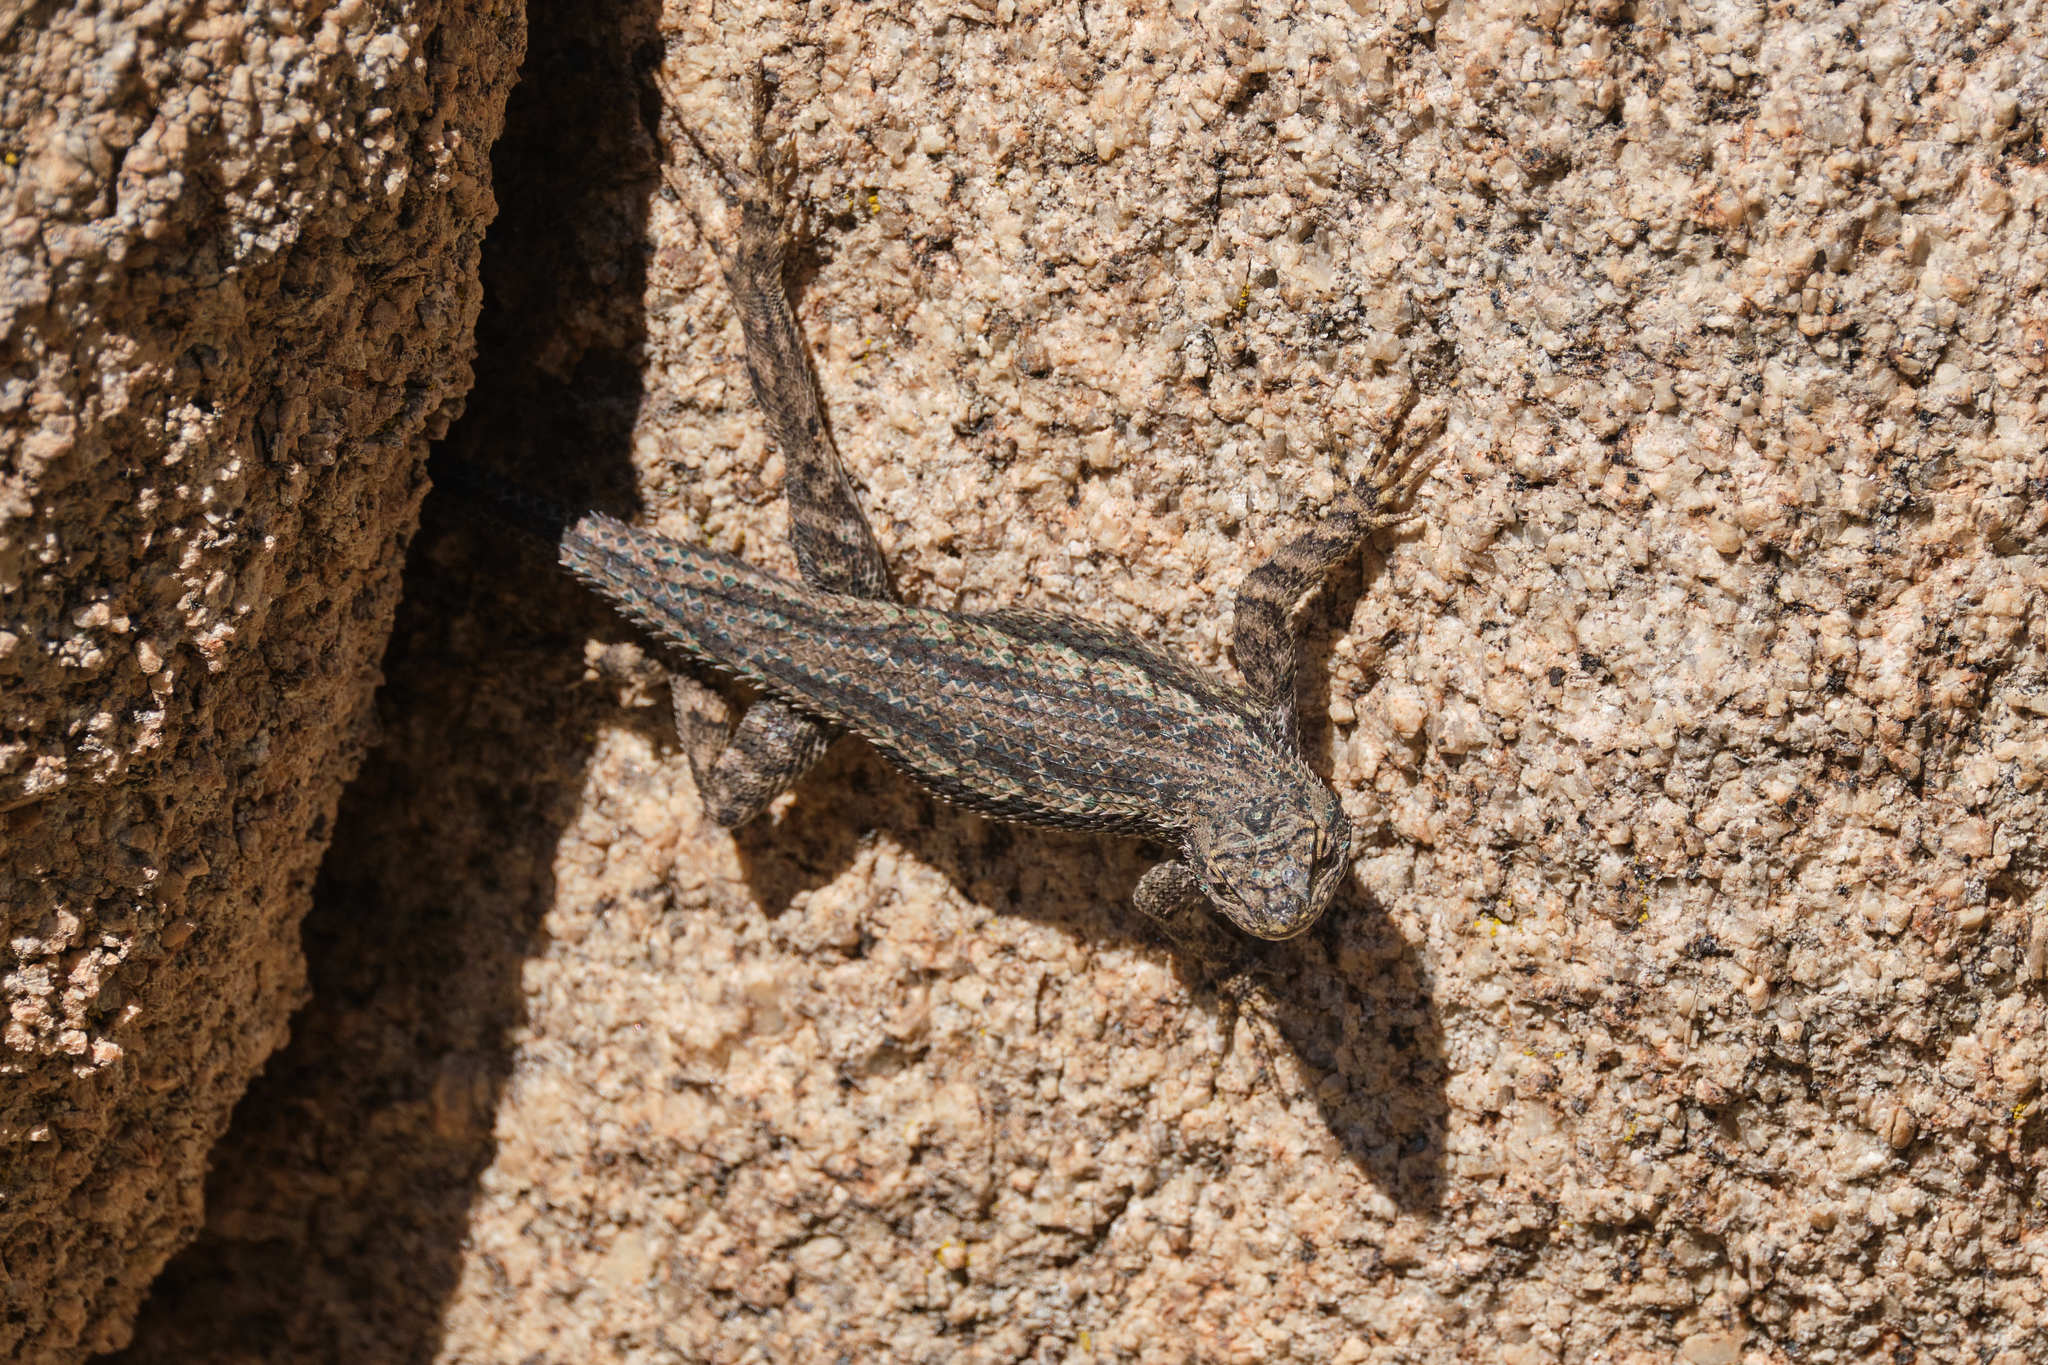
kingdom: Animalia
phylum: Chordata
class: Squamata
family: Phrynosomatidae
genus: Sceloporus
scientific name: Sceloporus occidentalis
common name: Western fence lizard
